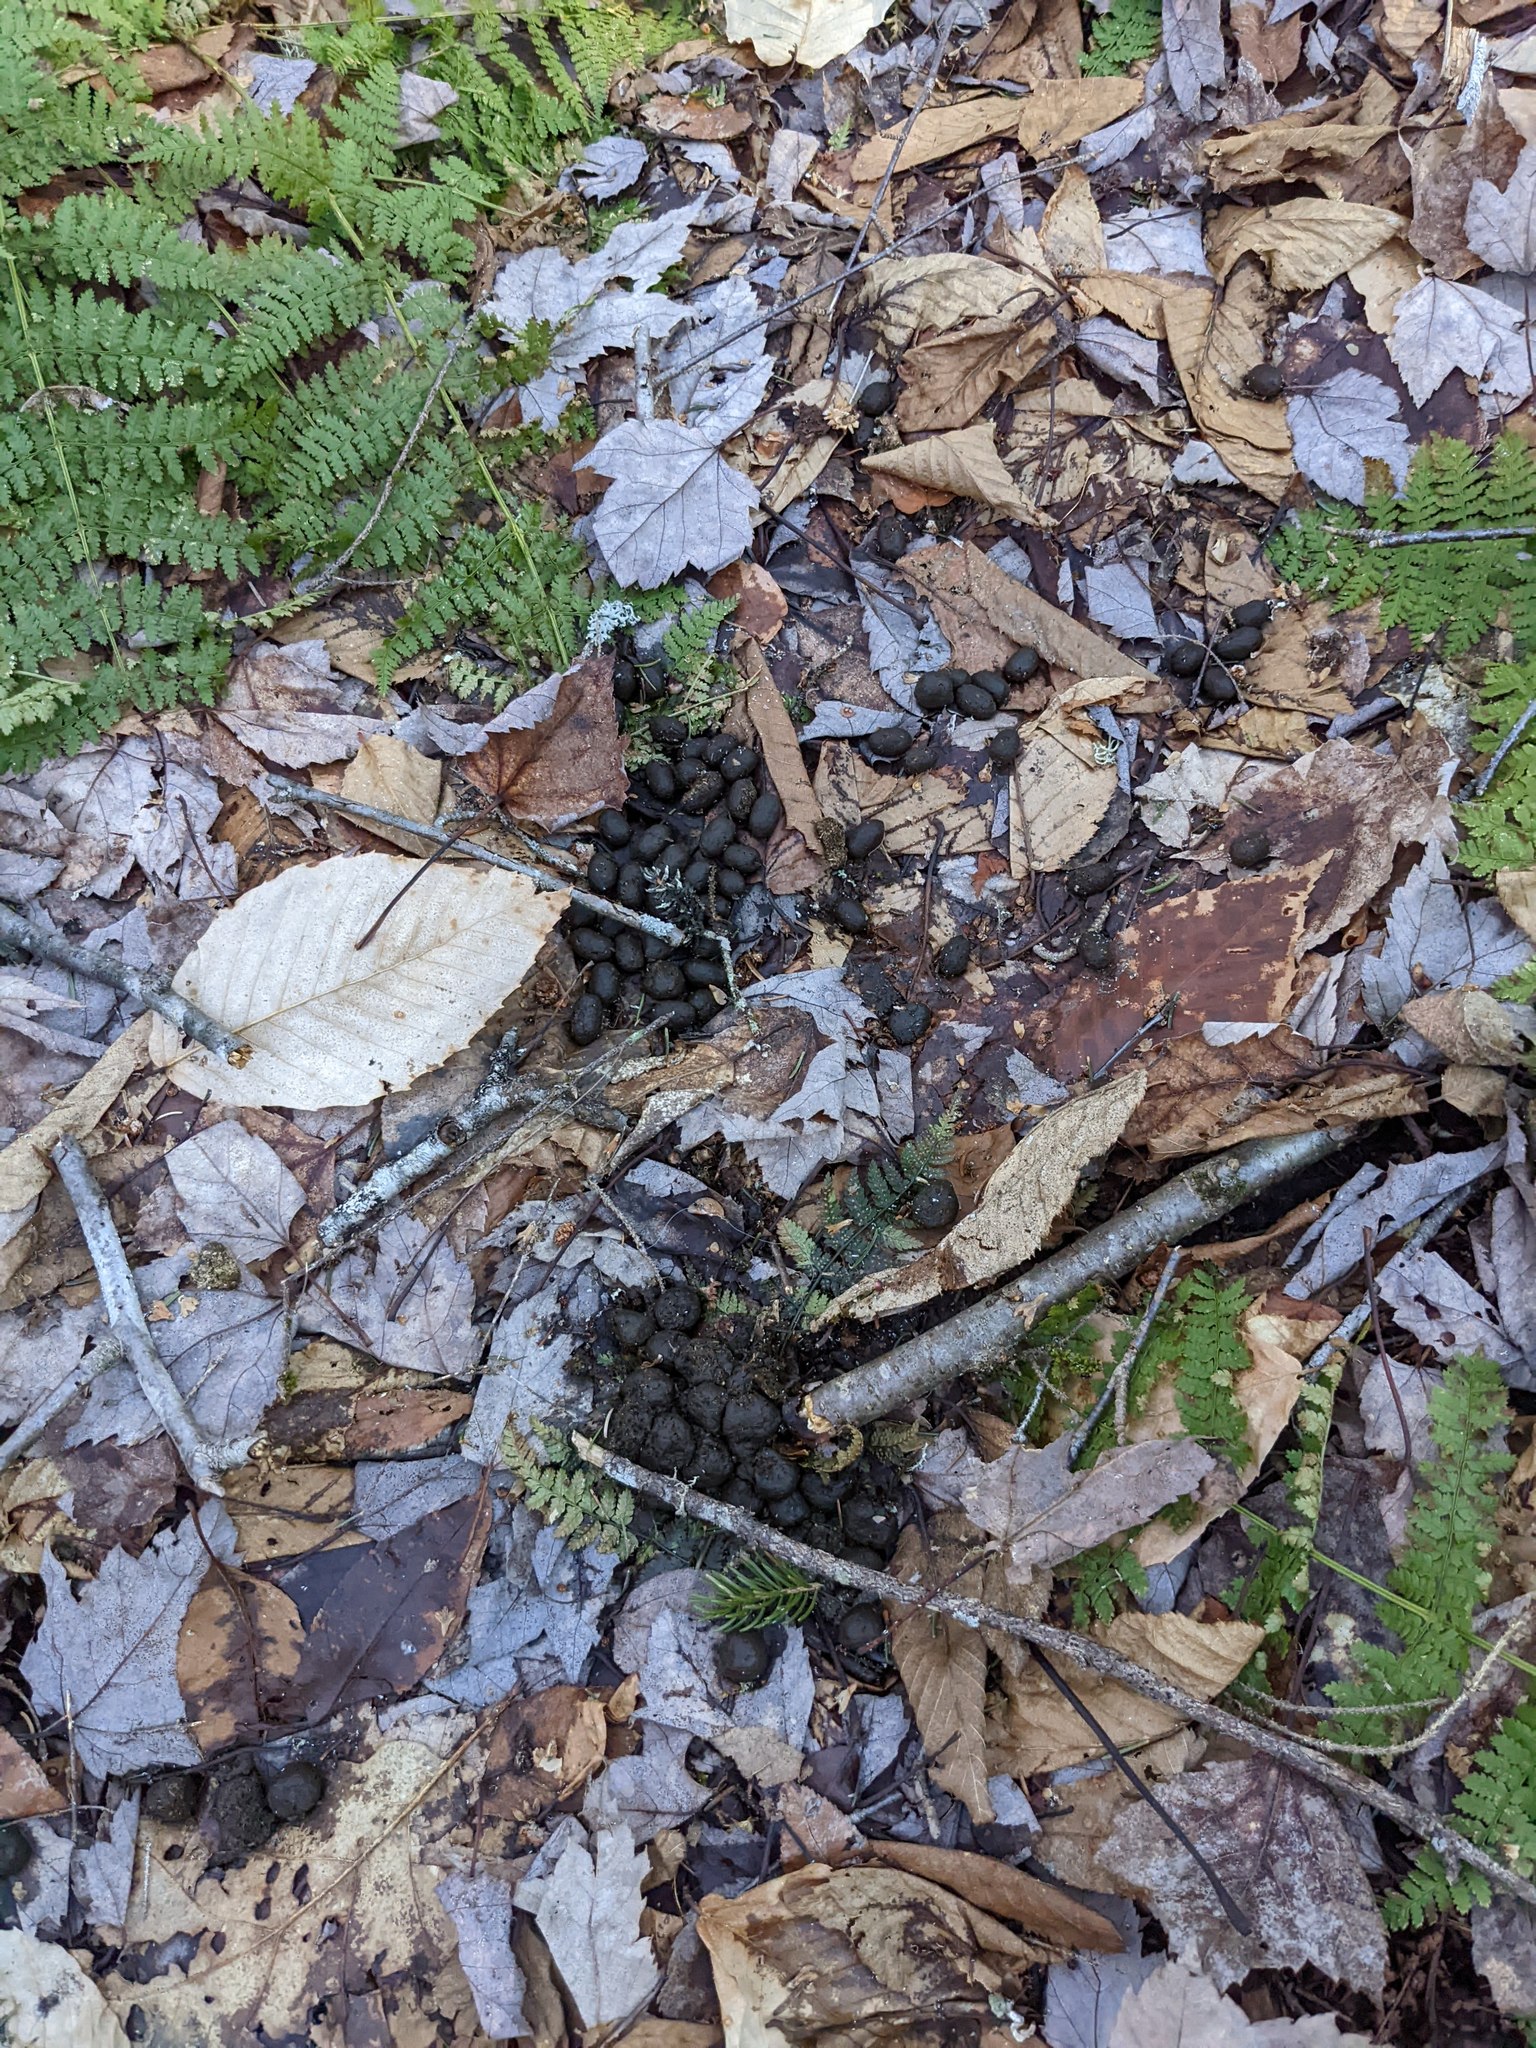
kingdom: Animalia
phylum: Chordata
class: Mammalia
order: Artiodactyla
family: Cervidae
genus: Odocoileus
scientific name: Odocoileus virginianus
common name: White-tailed deer
